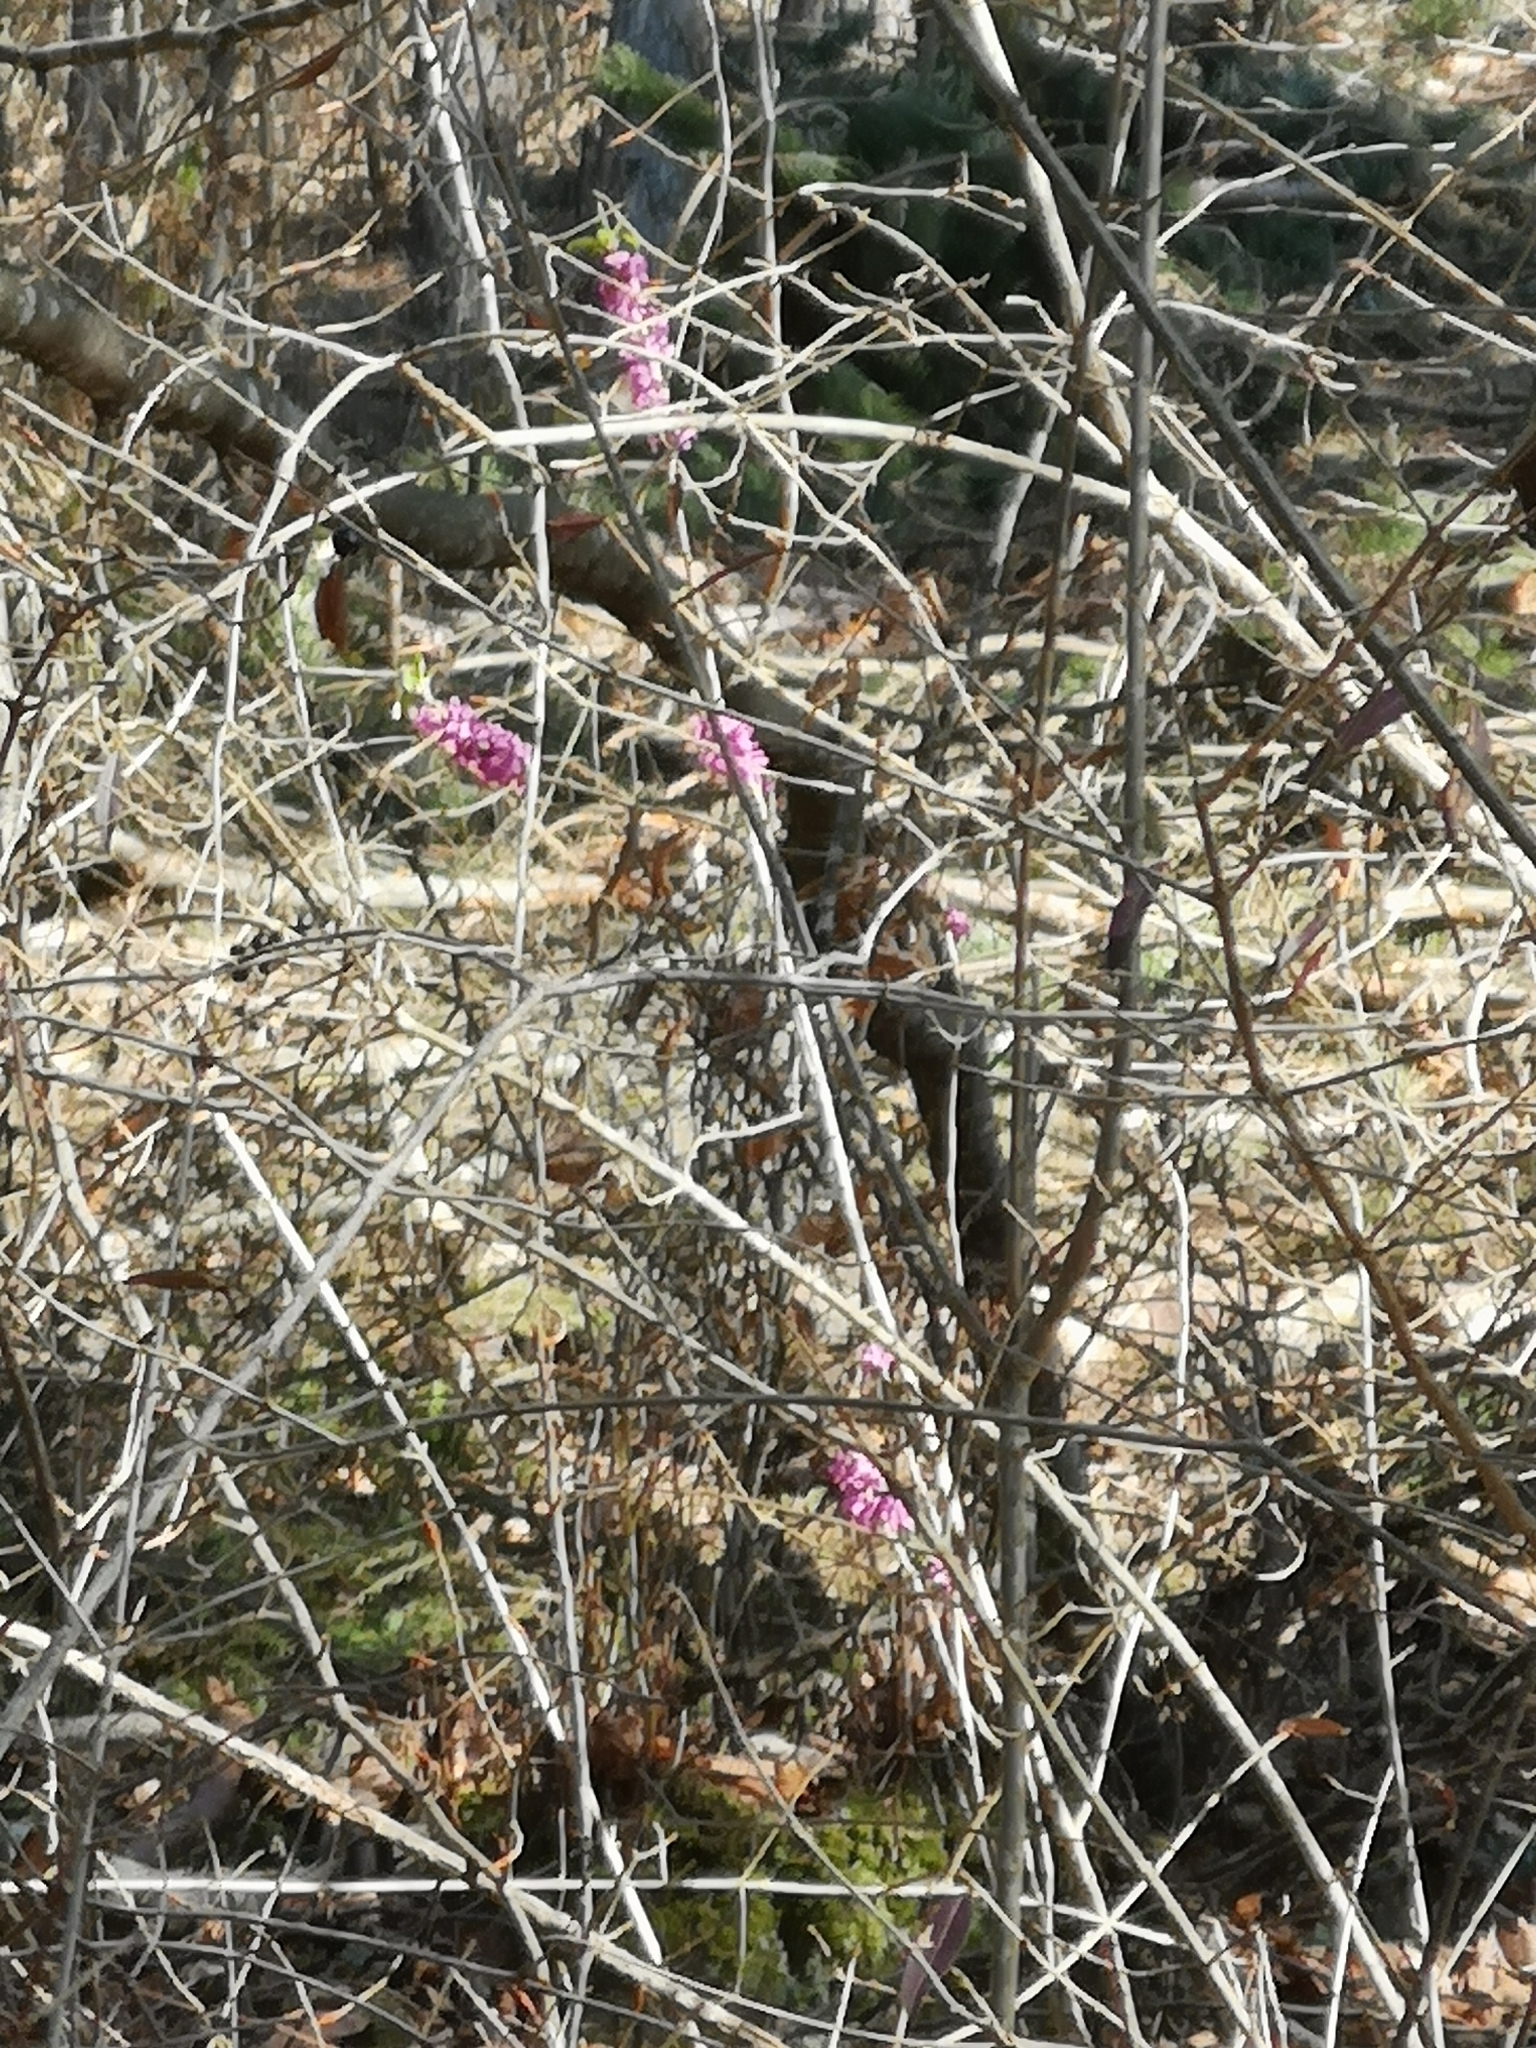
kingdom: Plantae
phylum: Tracheophyta
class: Magnoliopsida
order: Malvales
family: Thymelaeaceae
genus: Daphne
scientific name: Daphne mezereum
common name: Mezereon
